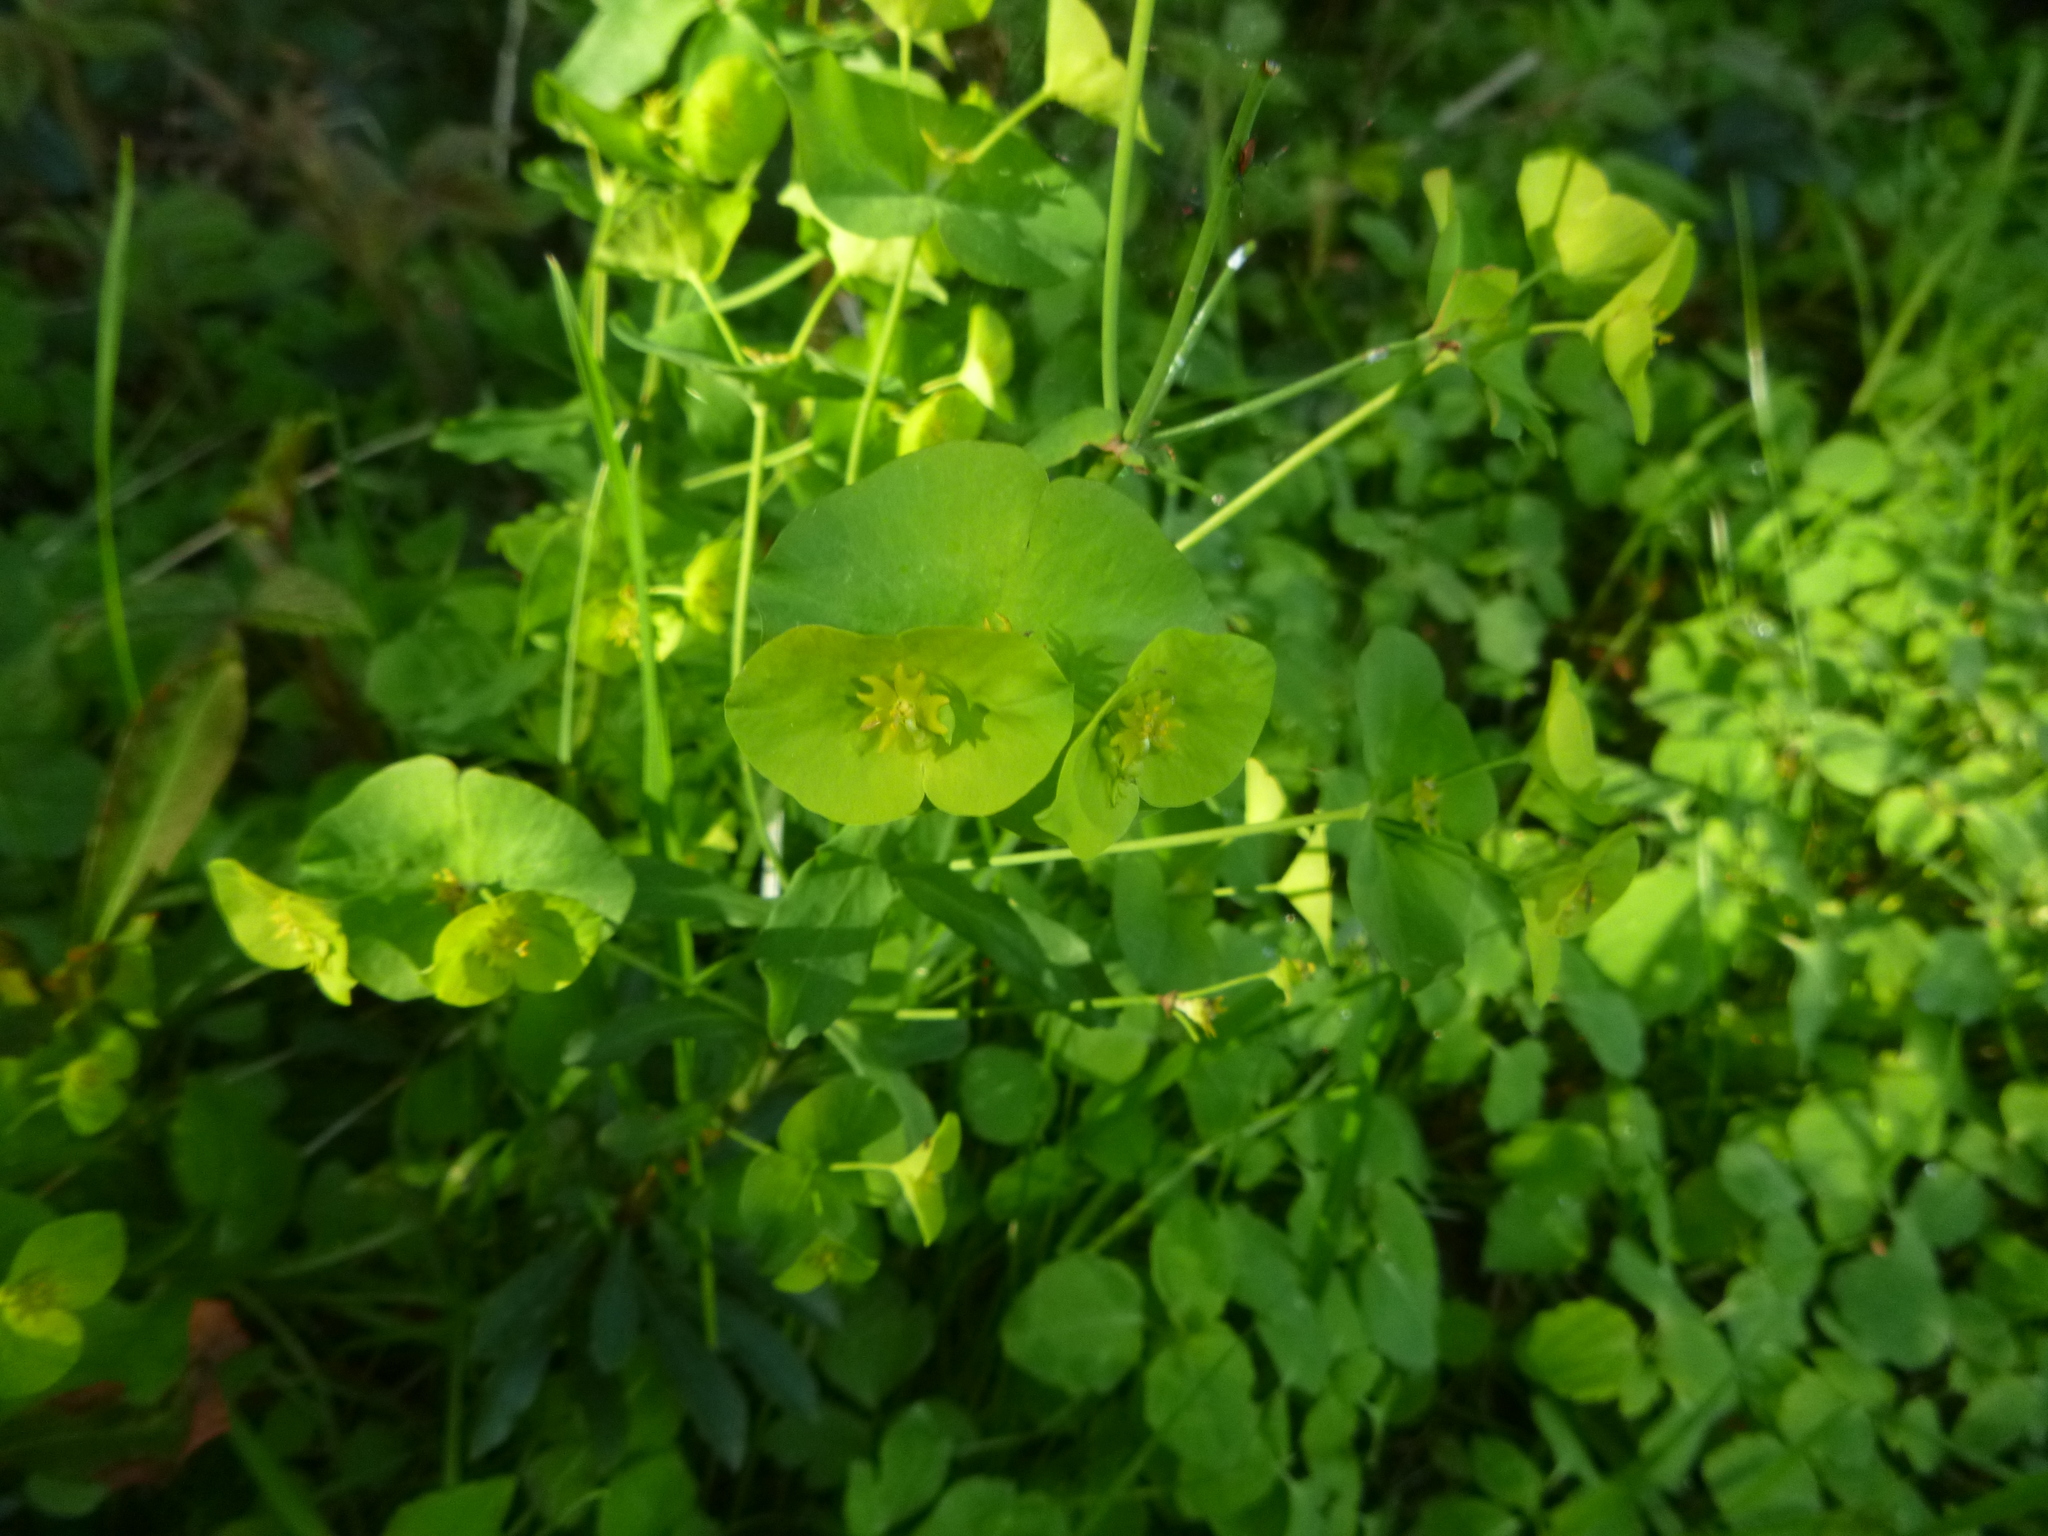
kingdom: Plantae
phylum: Tracheophyta
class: Magnoliopsida
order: Malpighiales
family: Euphorbiaceae
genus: Euphorbia
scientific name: Euphorbia amygdaloides
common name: Wood spurge
